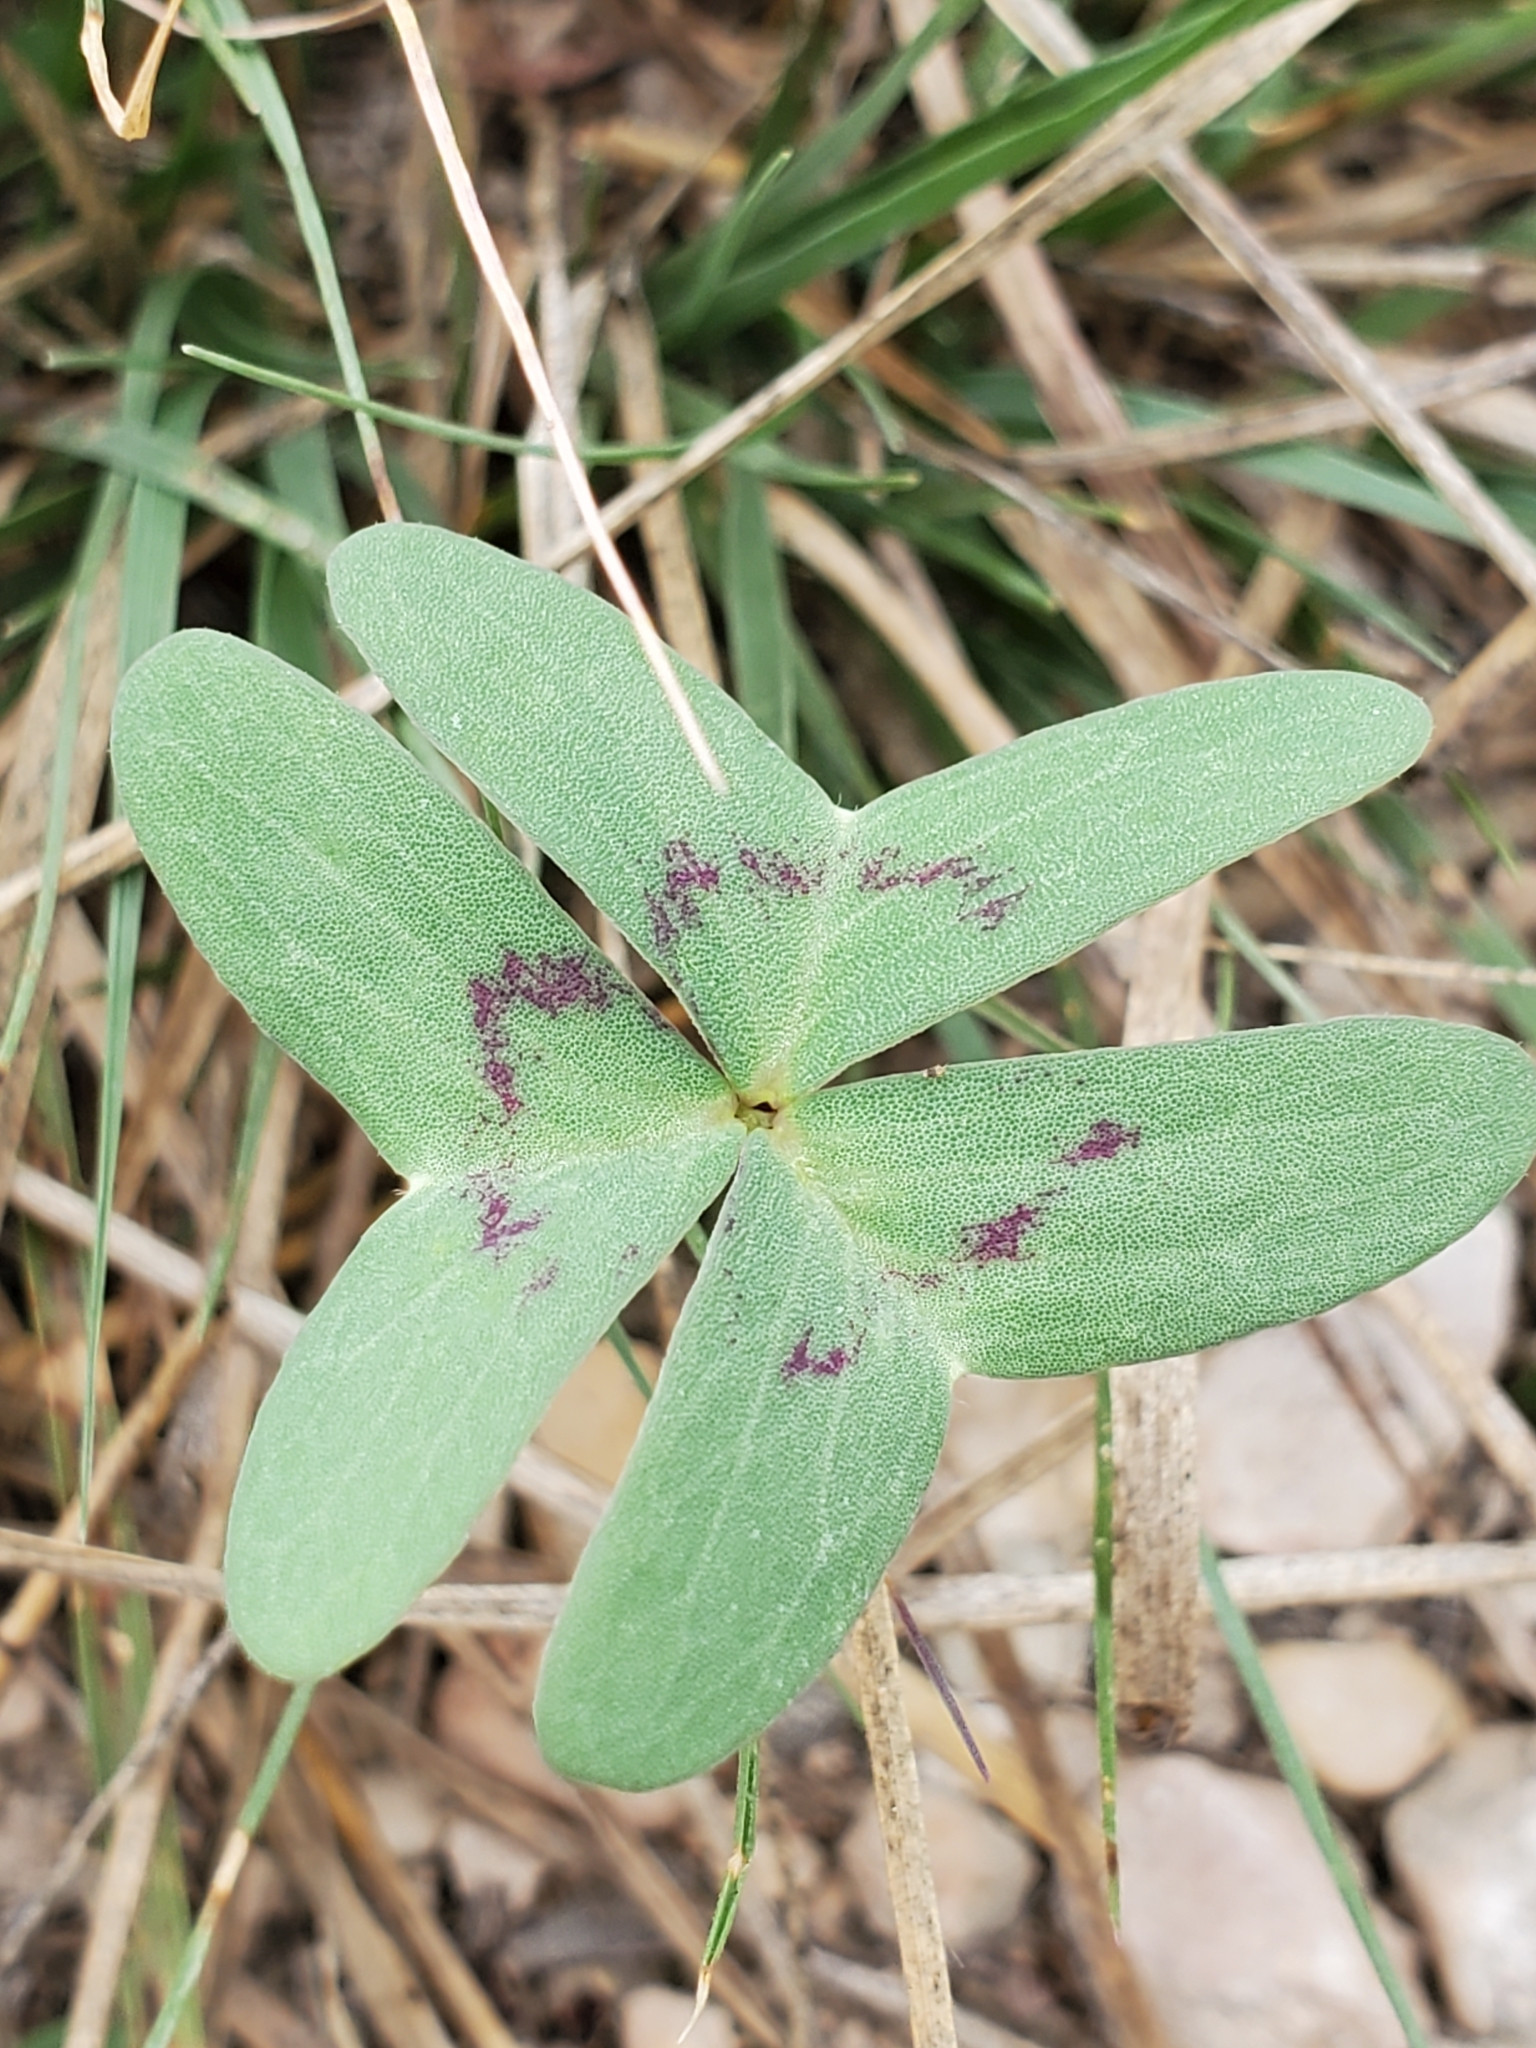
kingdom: Plantae
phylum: Tracheophyta
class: Magnoliopsida
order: Oxalidales
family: Oxalidaceae
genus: Oxalis
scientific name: Oxalis drummondii
